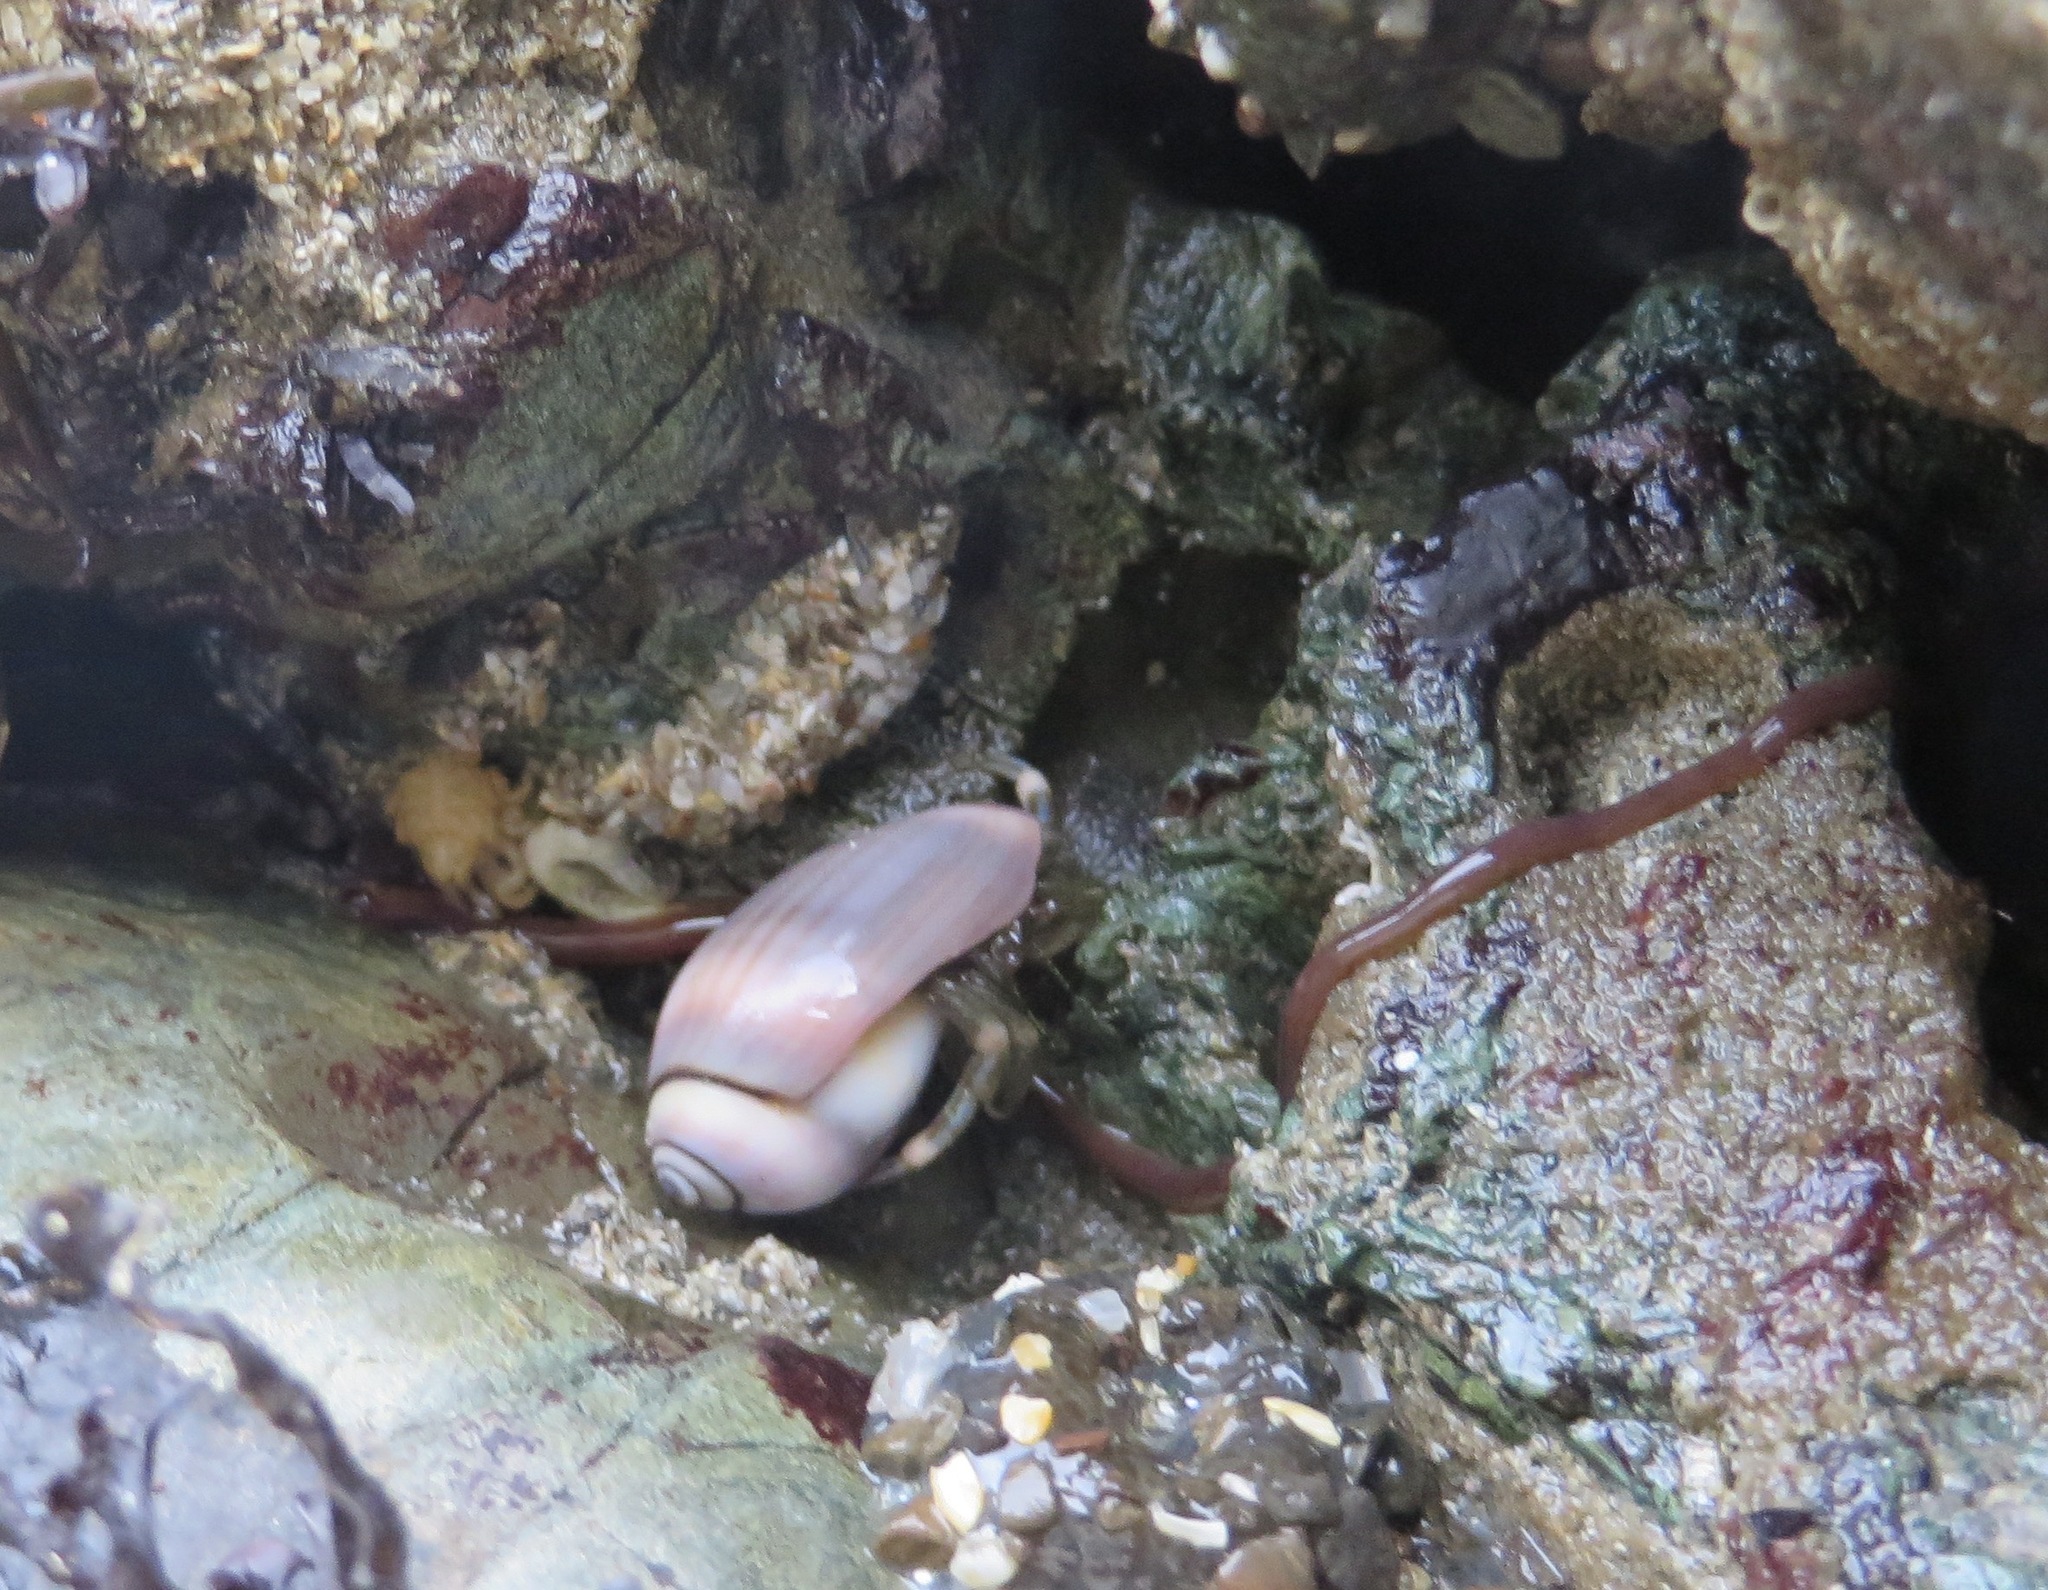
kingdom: Animalia
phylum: Nemertea
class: Hoplonemertea
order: Monostilifera
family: Neesiidae
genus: Paranemertes
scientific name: Paranemertes peregrina
